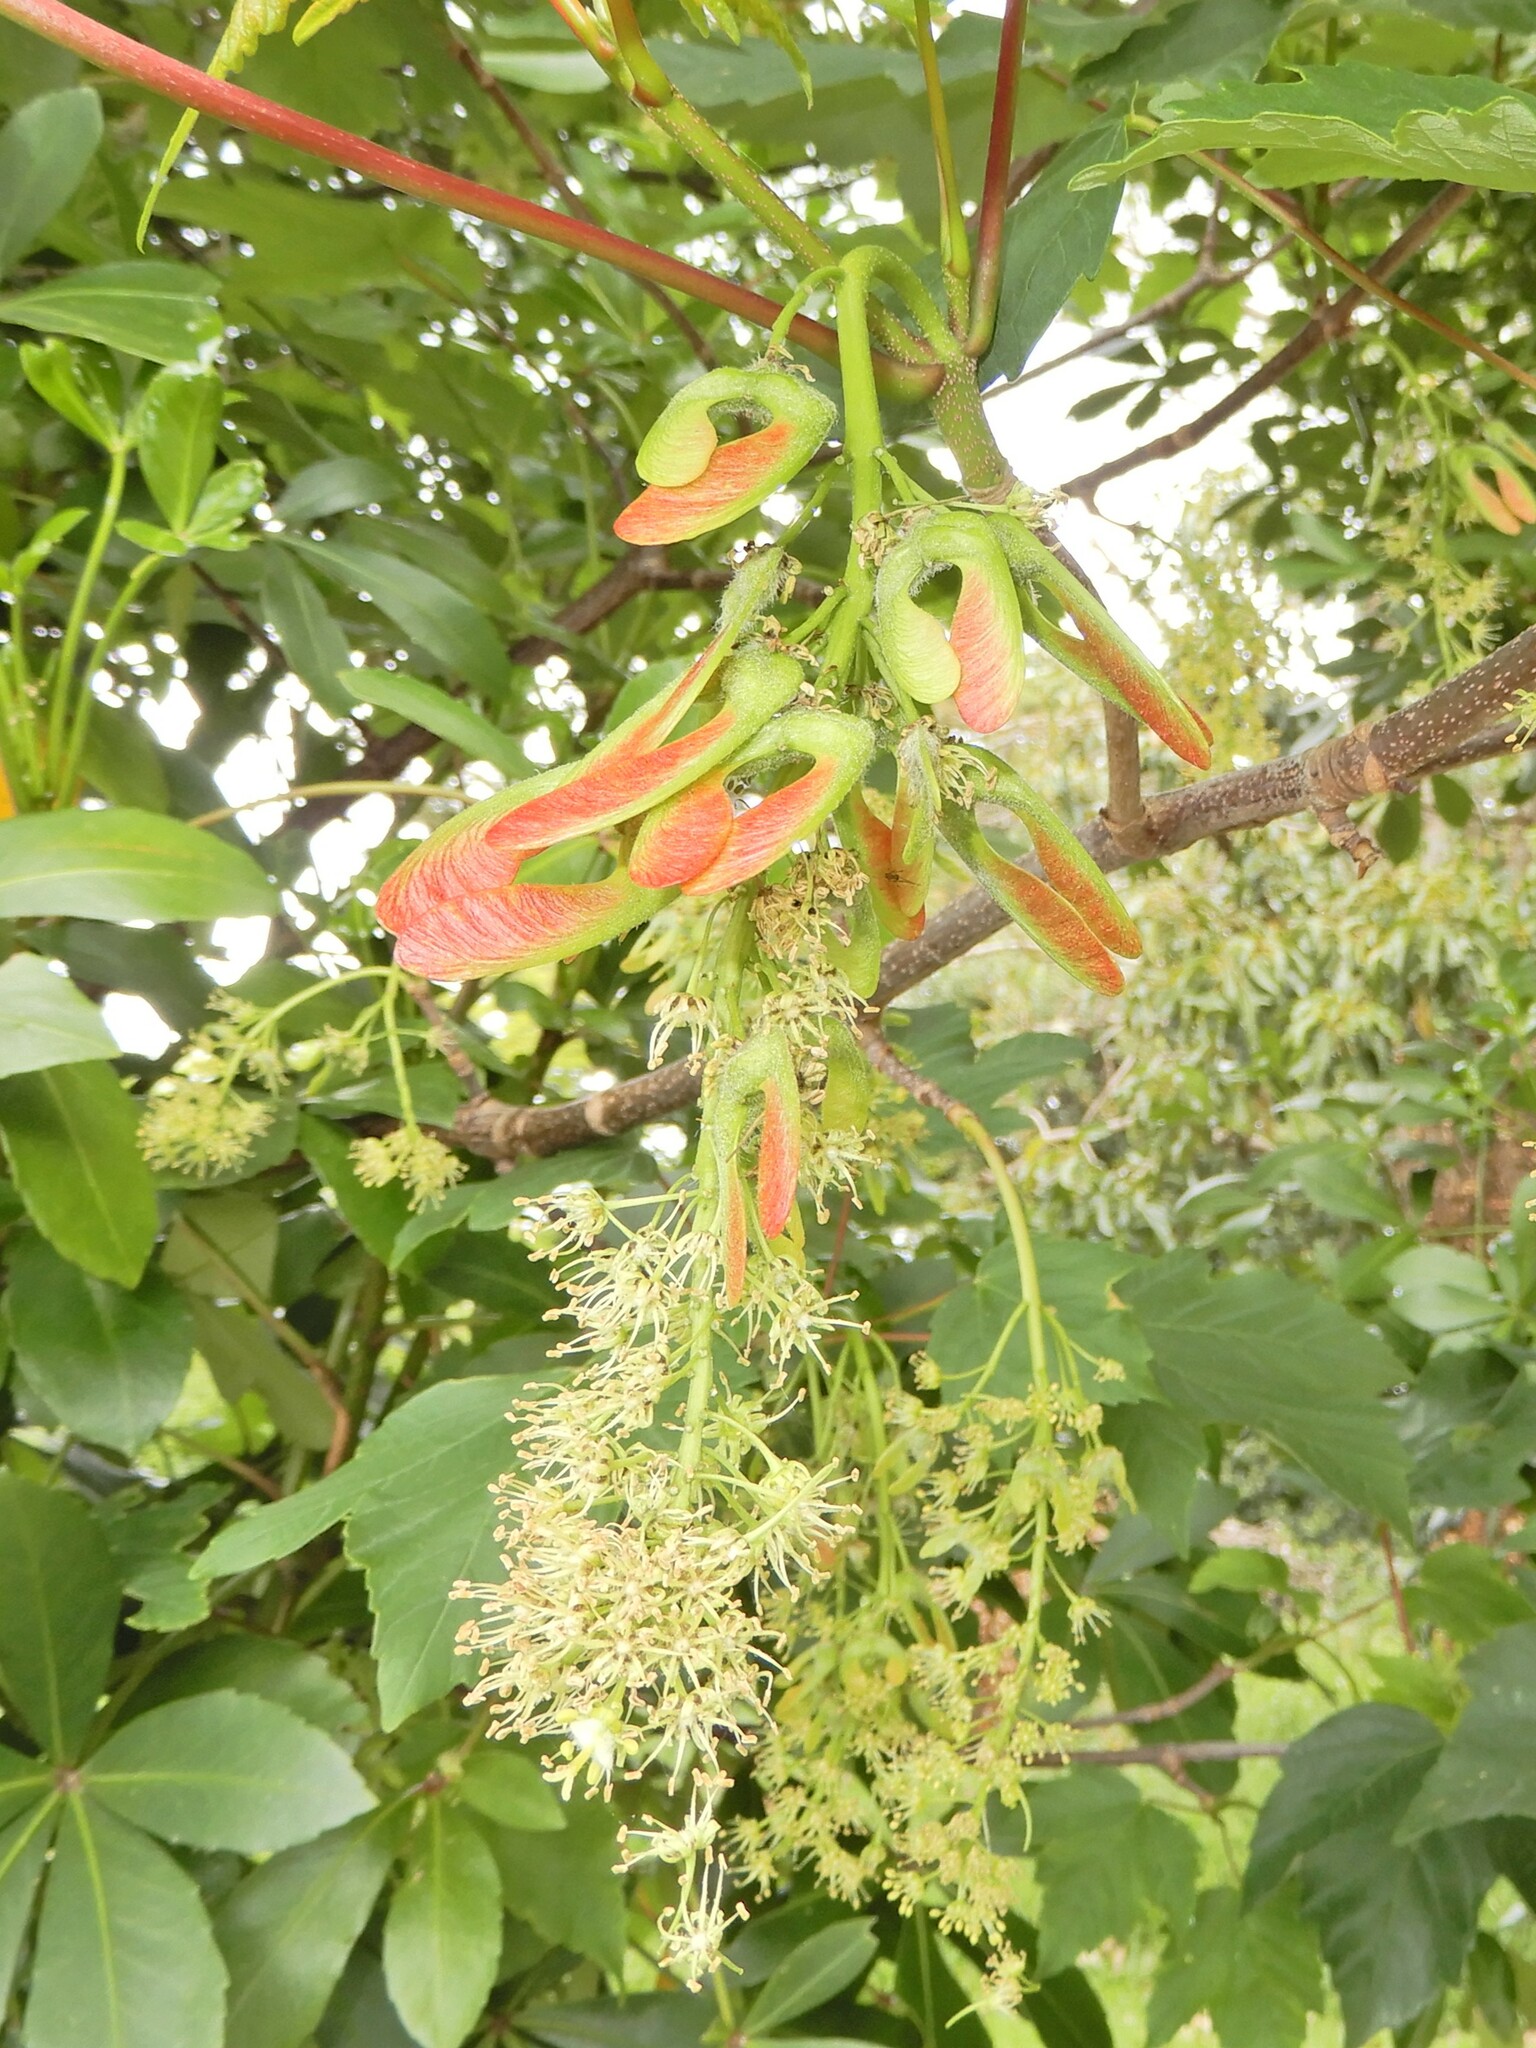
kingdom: Plantae
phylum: Tracheophyta
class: Magnoliopsida
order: Sapindales
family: Sapindaceae
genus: Acer
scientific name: Acer pseudoplatanus
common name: Sycamore
